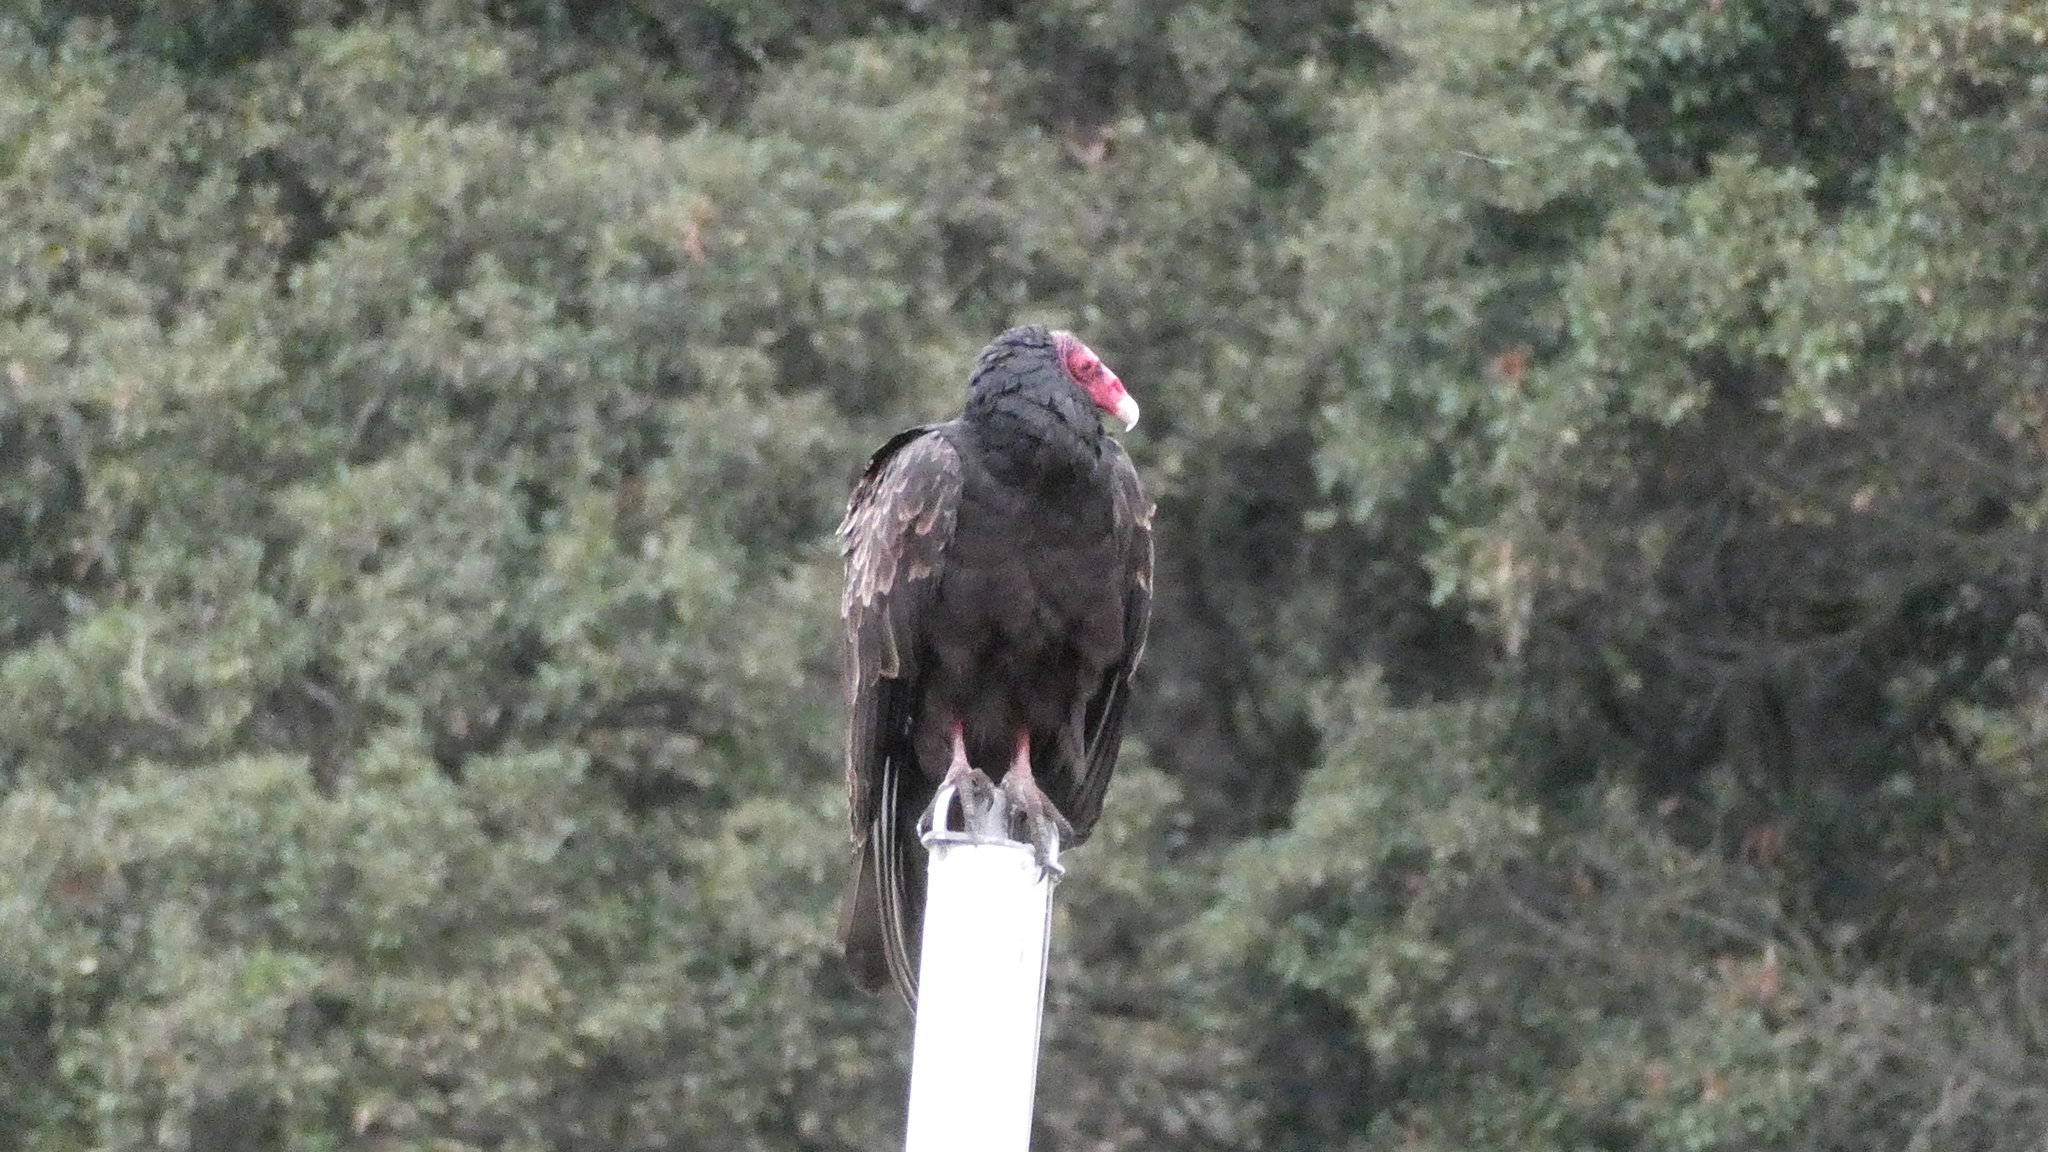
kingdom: Animalia
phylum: Chordata
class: Aves
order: Accipitriformes
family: Cathartidae
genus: Cathartes
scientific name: Cathartes aura
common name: Turkey vulture
